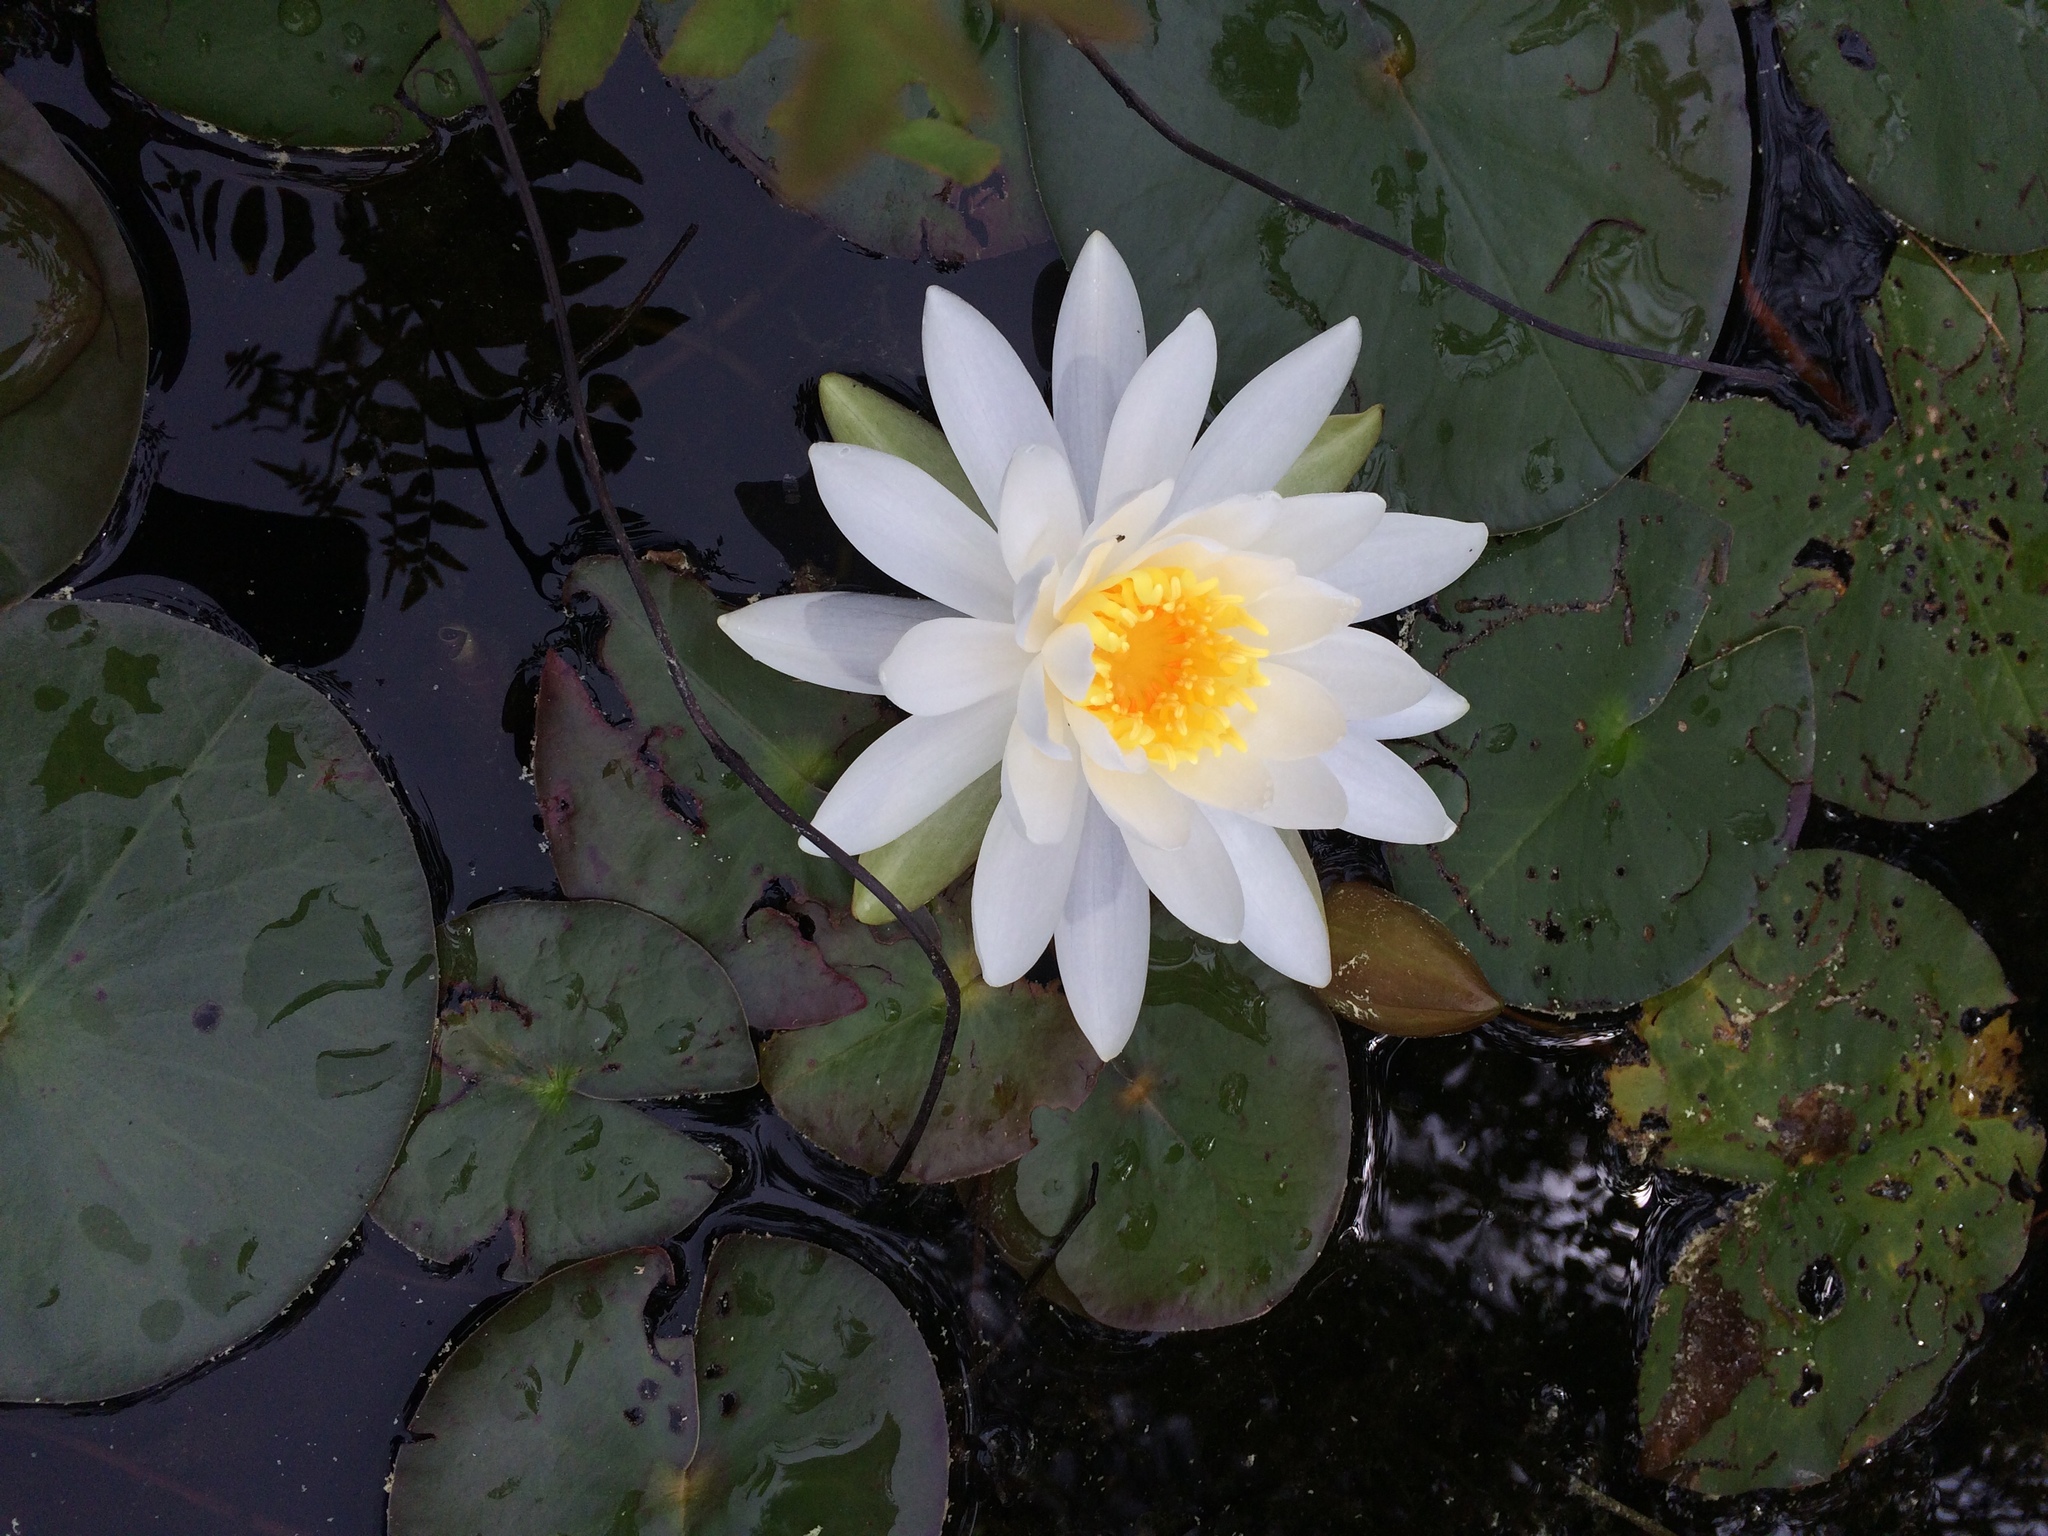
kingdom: Plantae
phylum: Tracheophyta
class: Magnoliopsida
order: Nymphaeales
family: Nymphaeaceae
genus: Nymphaea
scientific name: Nymphaea odorata
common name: Fragrant water-lily
